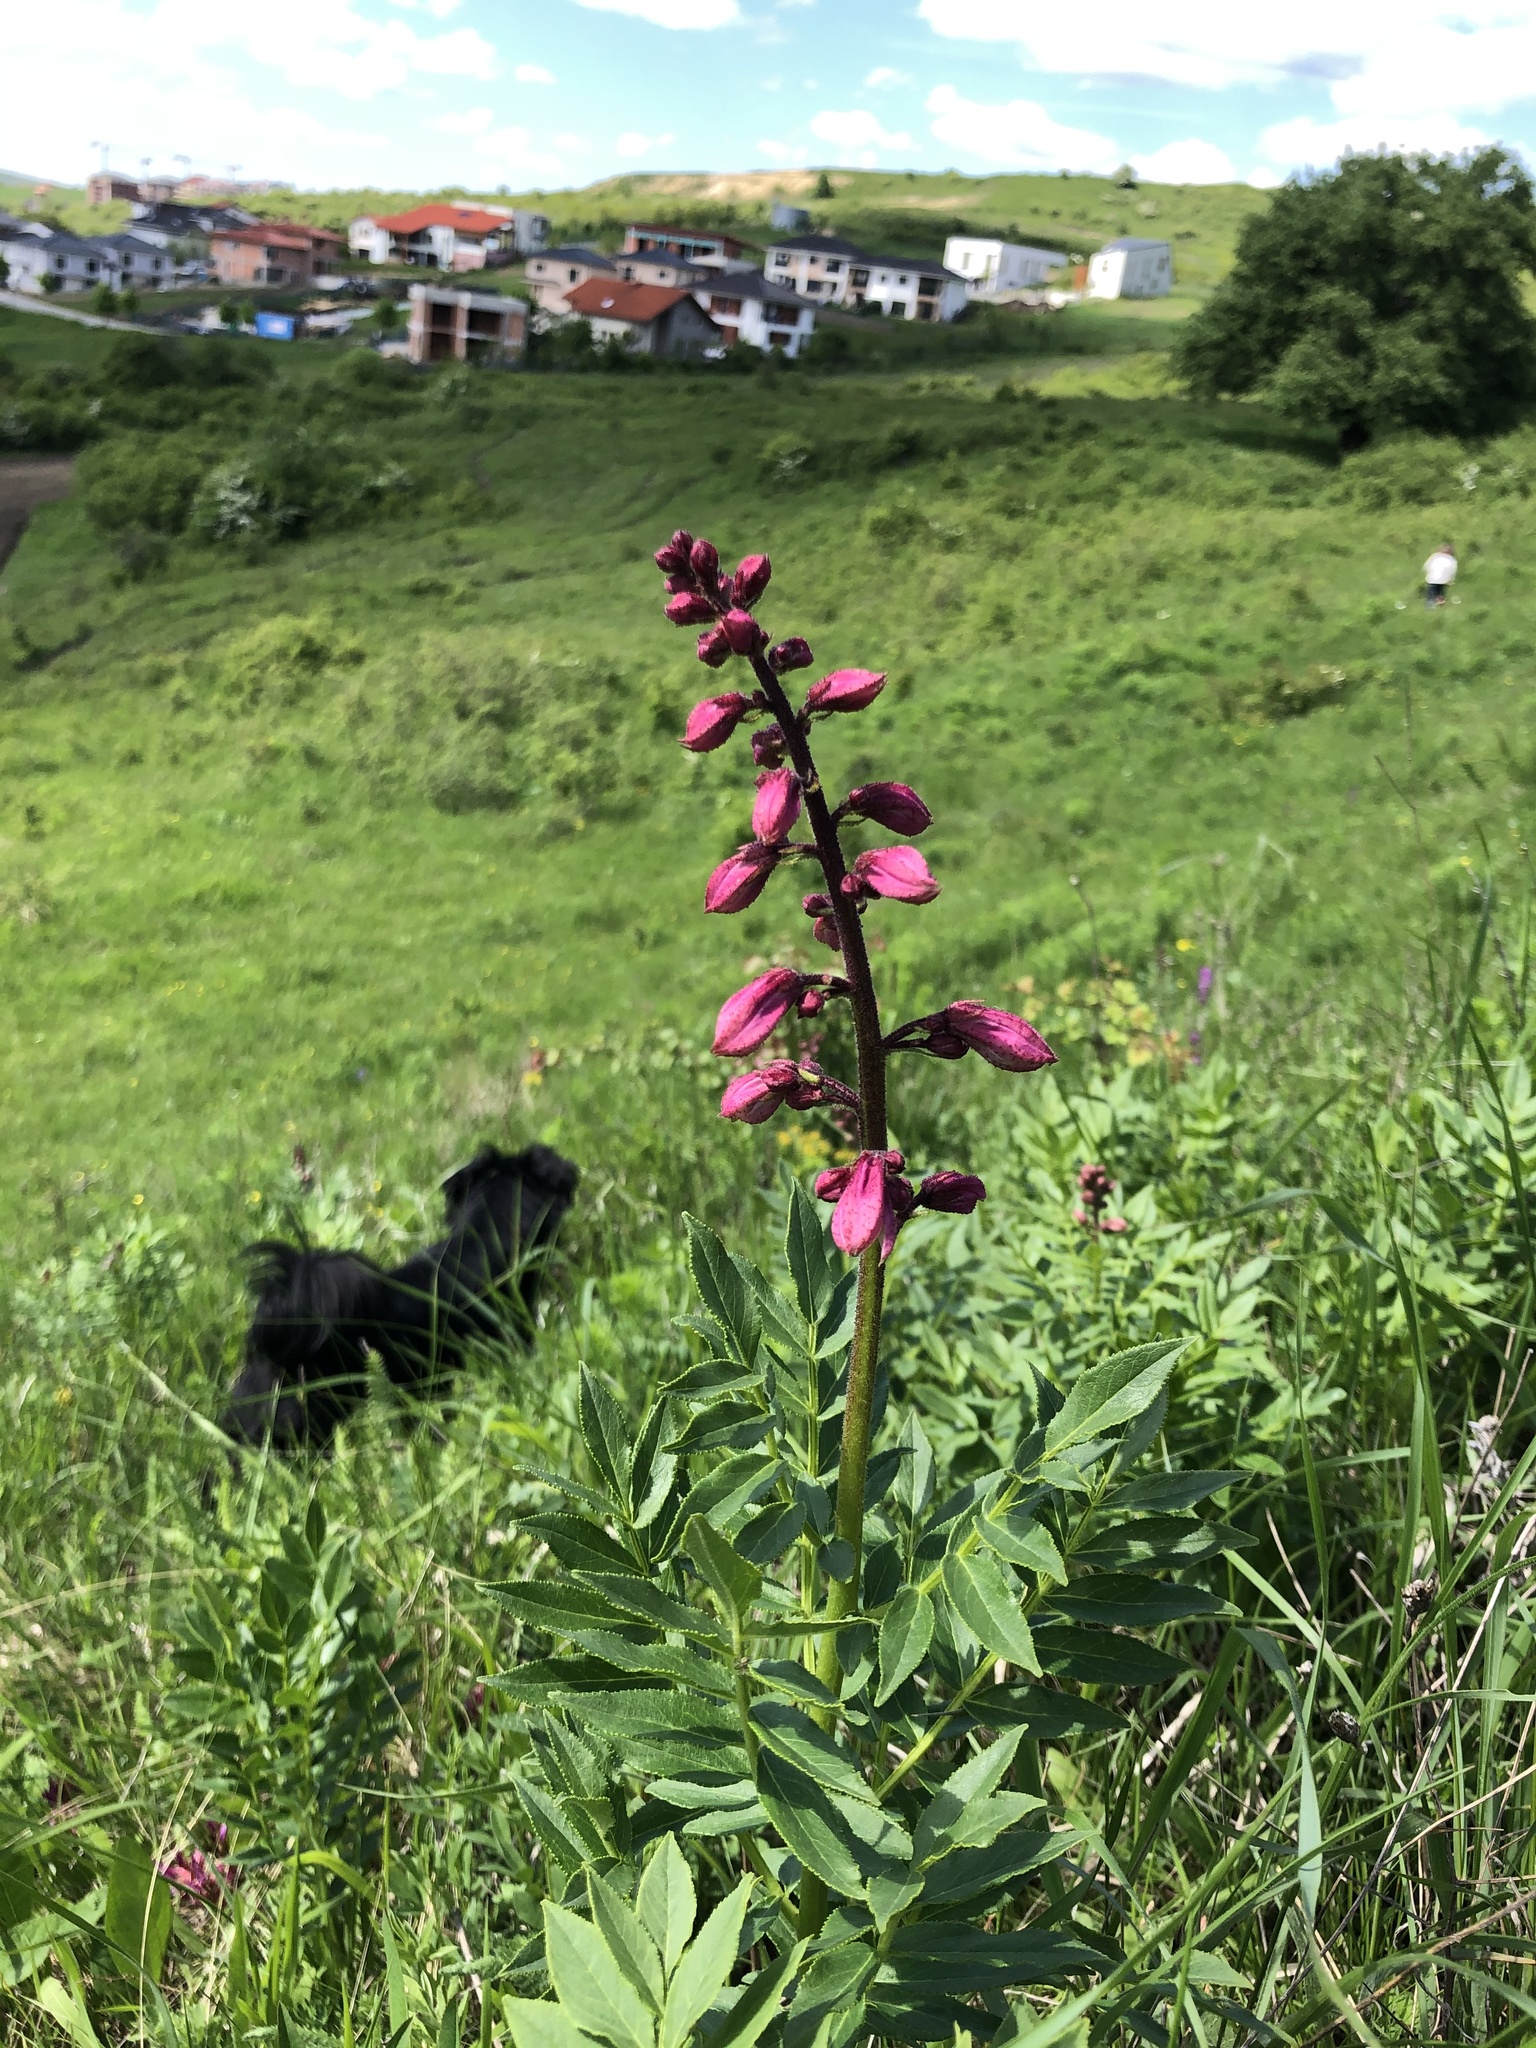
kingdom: Plantae
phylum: Tracheophyta
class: Magnoliopsida
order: Sapindales
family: Rutaceae
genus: Dictamnus
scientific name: Dictamnus albus
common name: Gasplant
